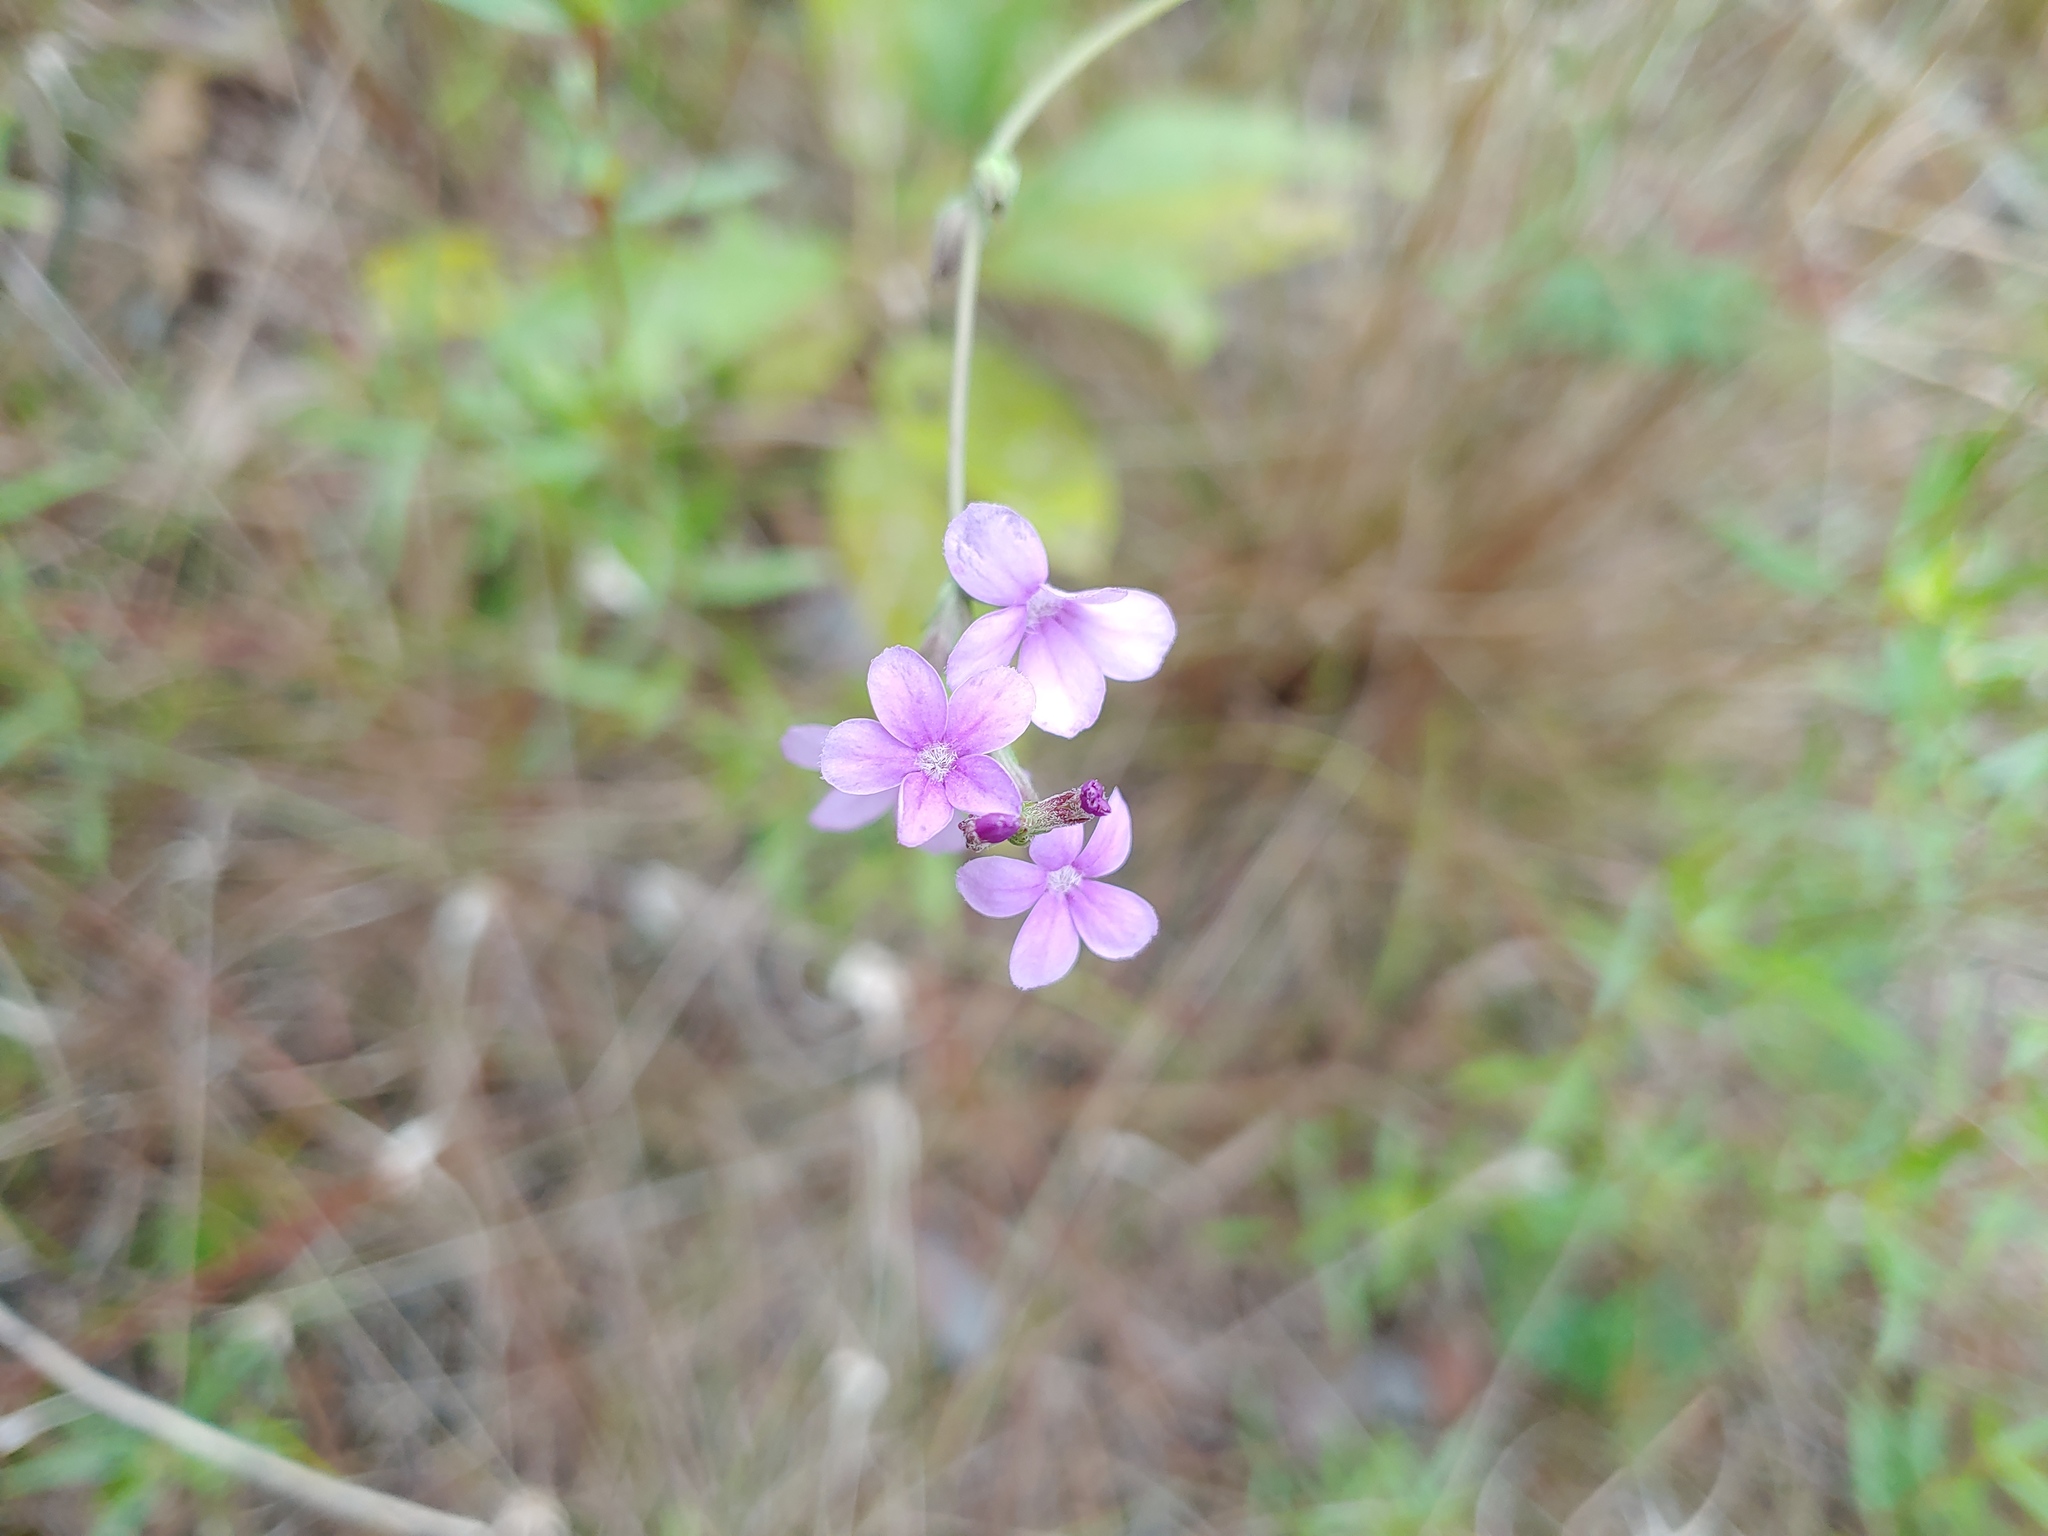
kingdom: Plantae
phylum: Tracheophyta
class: Magnoliopsida
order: Lamiales
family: Orobanchaceae
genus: Buchnera
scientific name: Buchnera floridana
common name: Florida bluehearts
